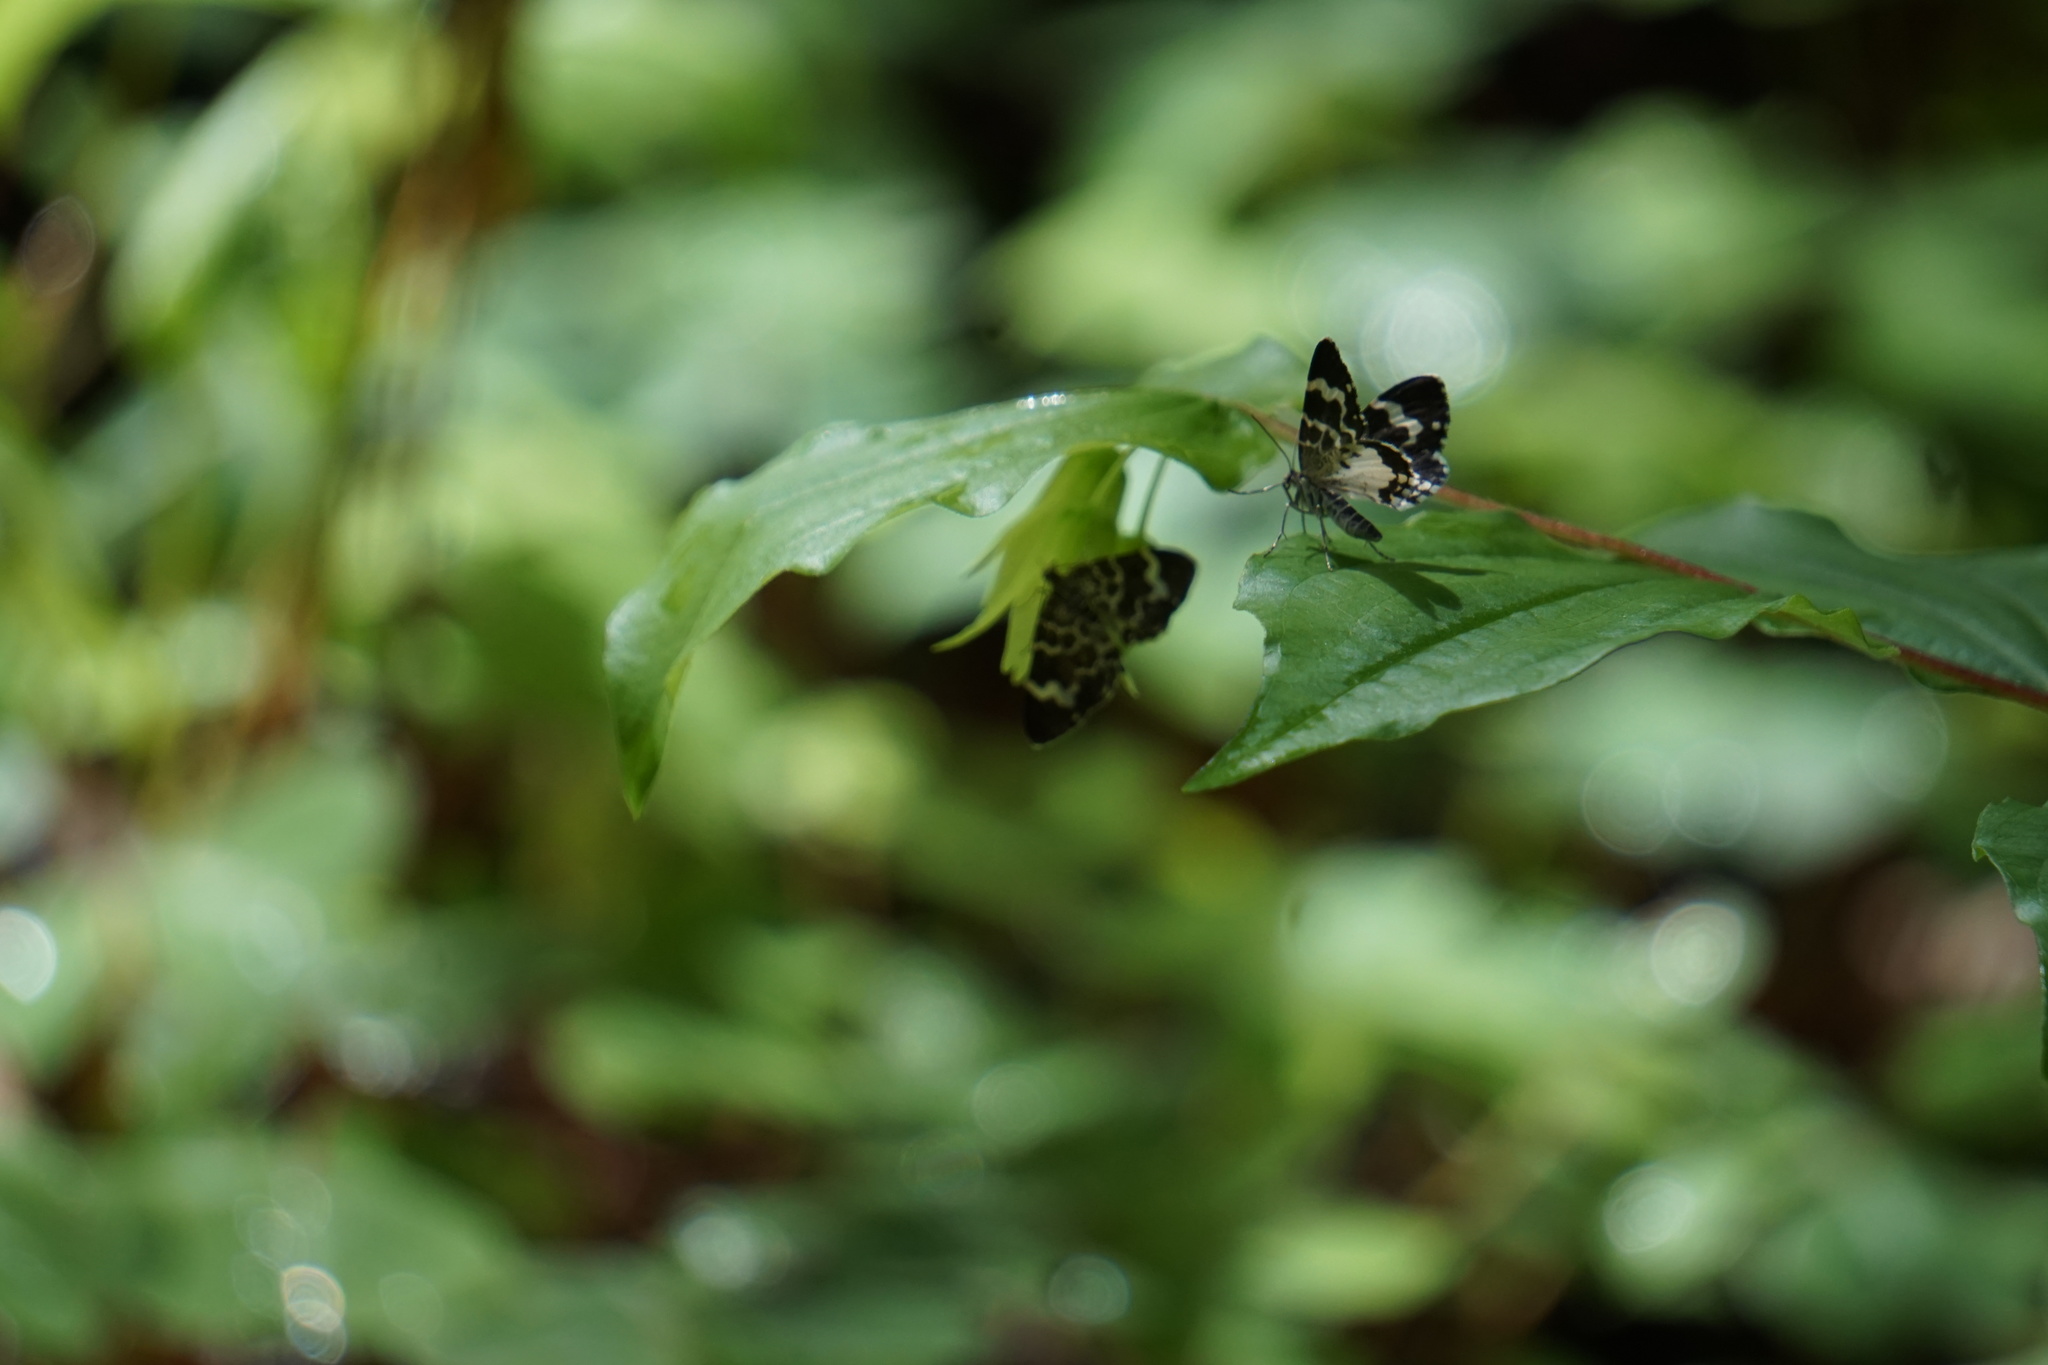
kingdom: Animalia
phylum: Arthropoda
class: Insecta
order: Lepidoptera
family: Geometridae
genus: Trichodezia
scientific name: Trichodezia californiata
